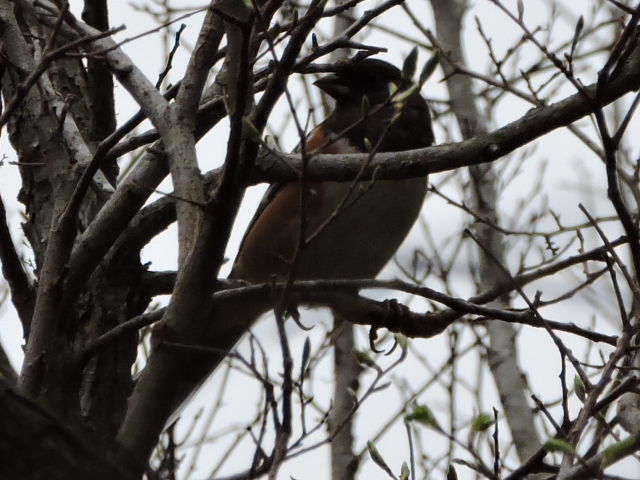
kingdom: Animalia
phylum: Chordata
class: Aves
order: Passeriformes
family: Passerellidae
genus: Pipilo
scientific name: Pipilo maculatus
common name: Spotted towhee
